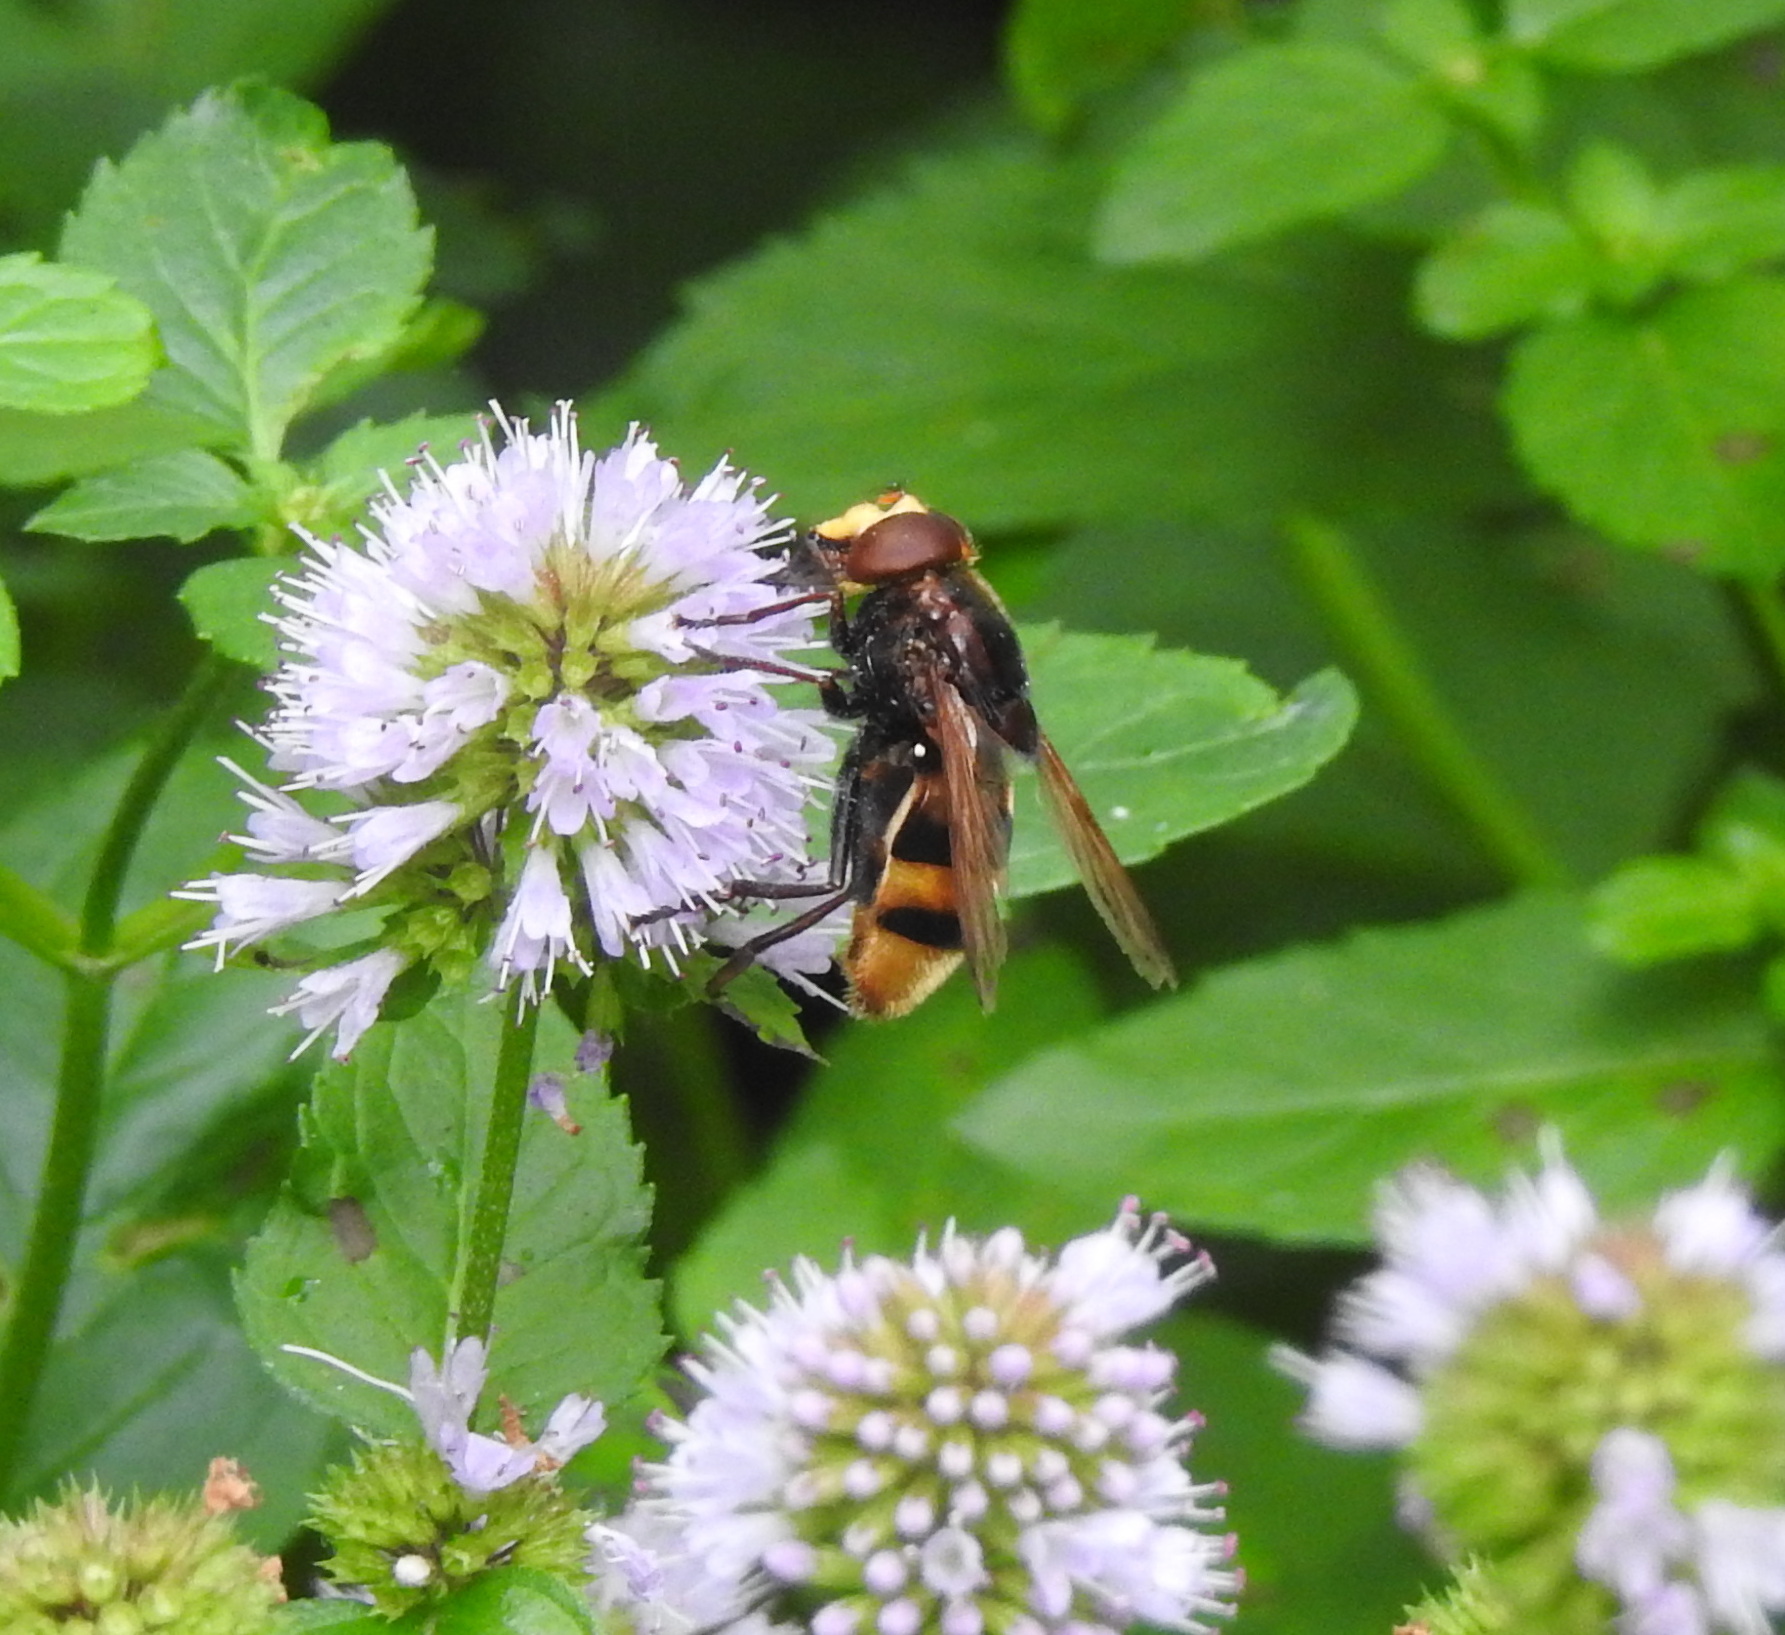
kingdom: Animalia
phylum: Arthropoda
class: Insecta
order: Diptera
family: Syrphidae
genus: Volucella
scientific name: Volucella zonaria
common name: Hornet hoverfly
